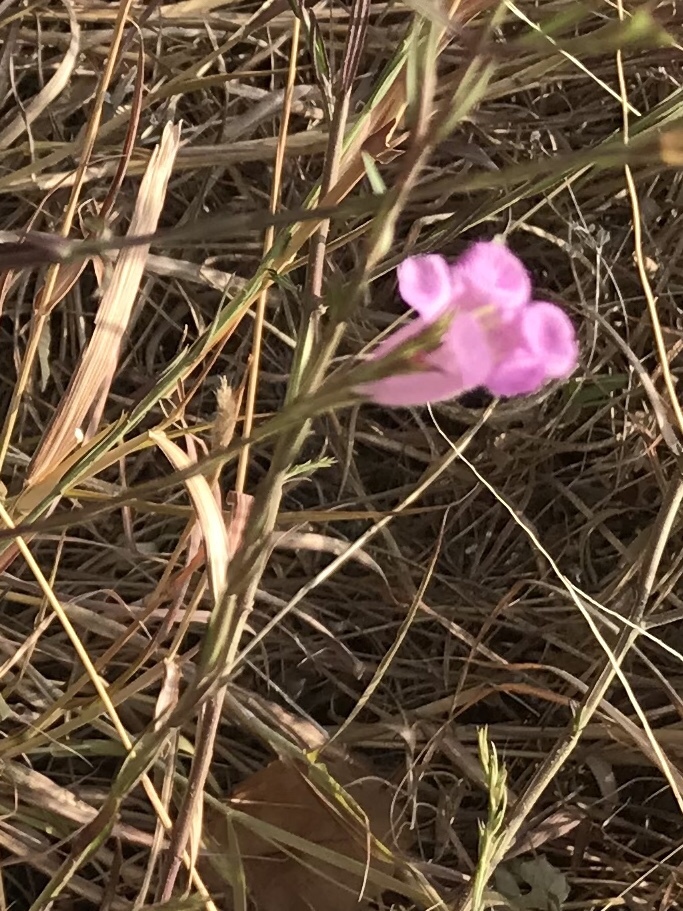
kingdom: Plantae
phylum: Tracheophyta
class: Magnoliopsida
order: Lamiales
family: Orobanchaceae
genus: Agalinis
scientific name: Agalinis heterophylla
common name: Prairie agalinis
